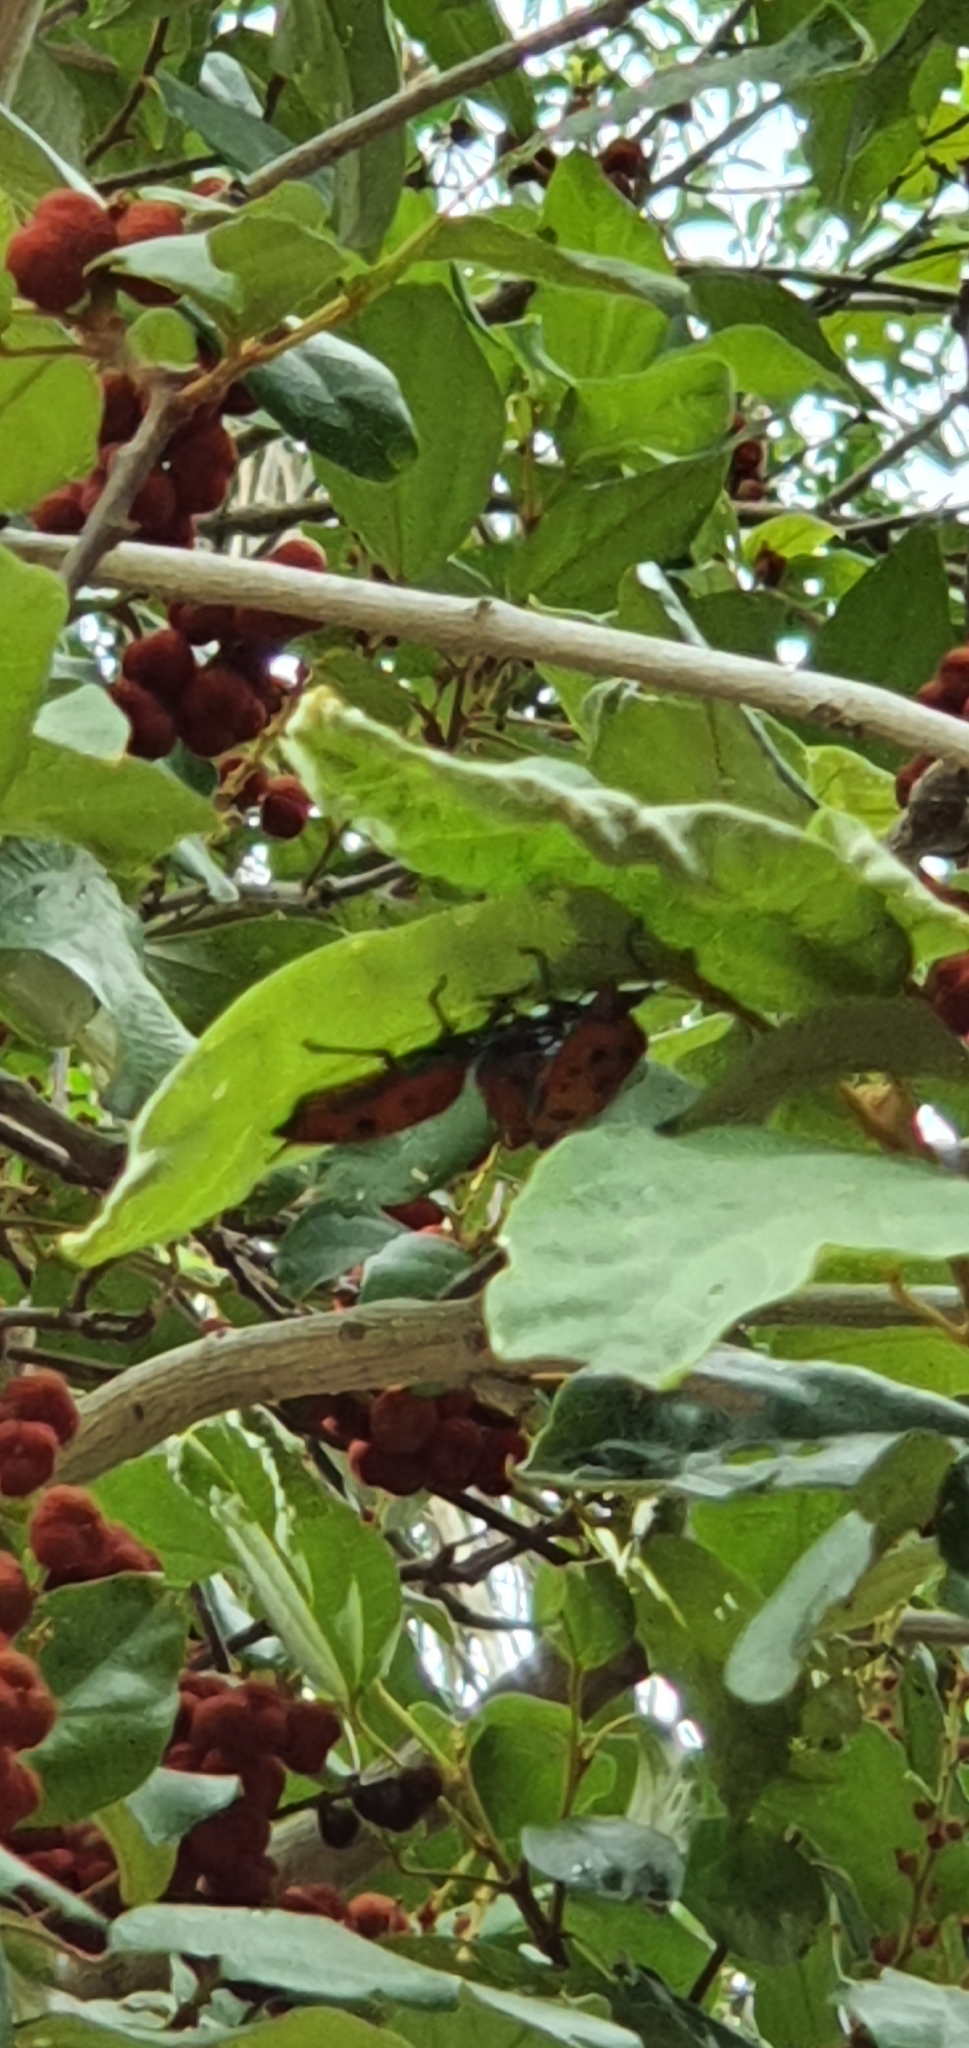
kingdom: Animalia
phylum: Arthropoda
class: Insecta
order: Hemiptera
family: Scutelleridae
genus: Cantao
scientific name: Cantao
